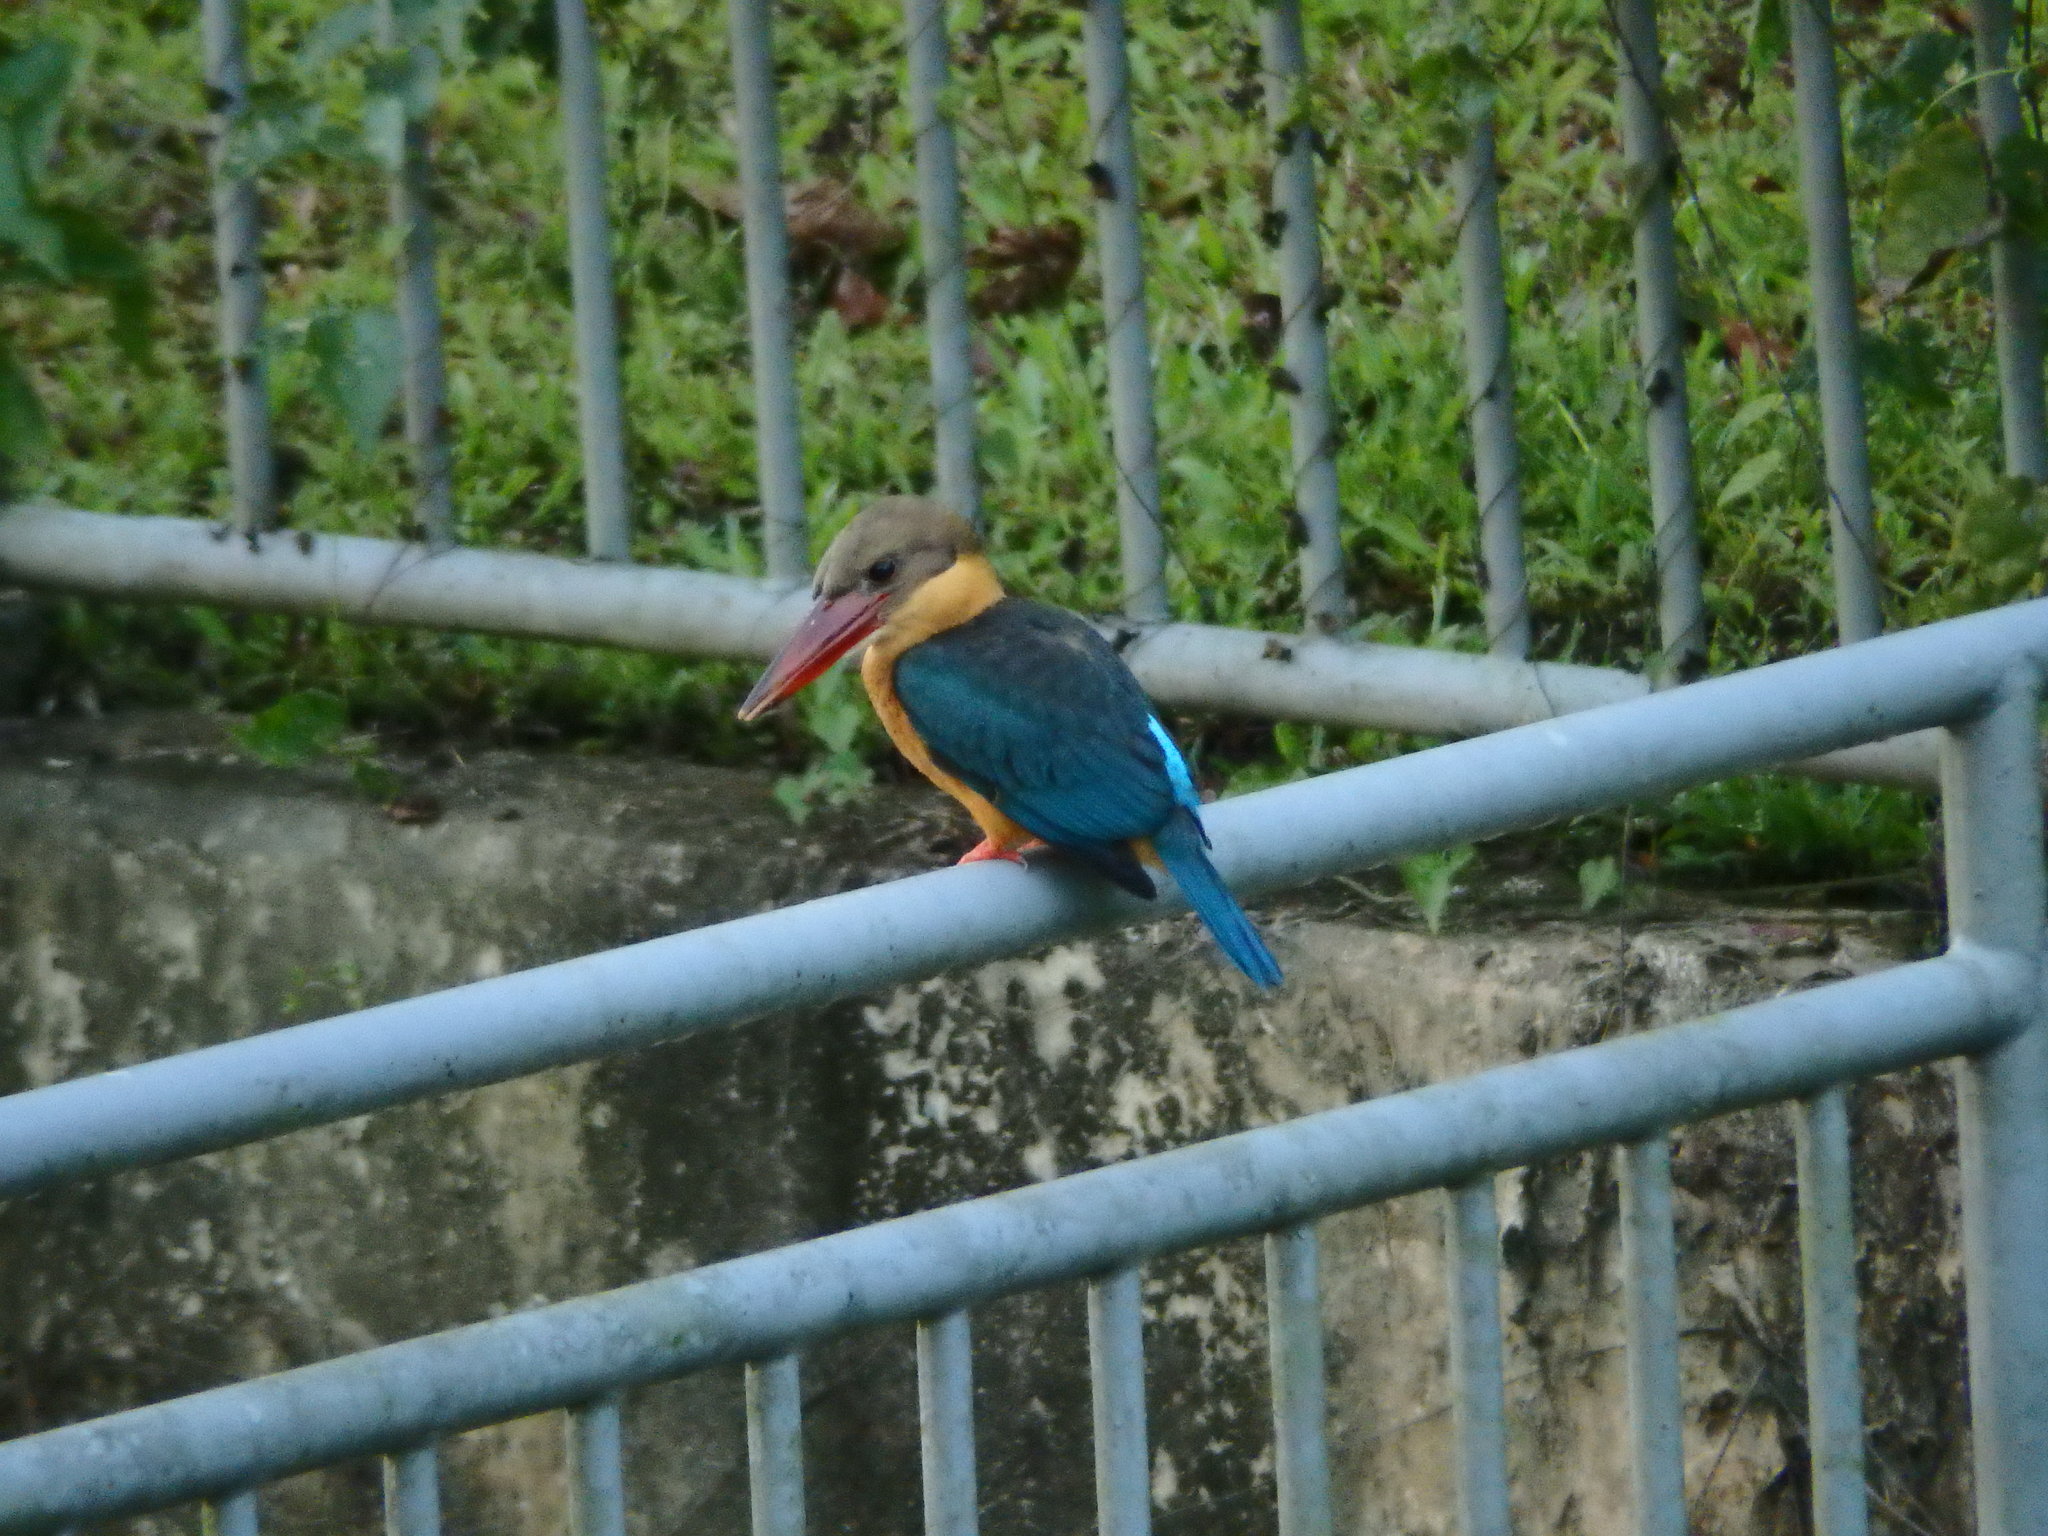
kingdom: Animalia
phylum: Chordata
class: Aves
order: Coraciiformes
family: Alcedinidae
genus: Pelargopsis
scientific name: Pelargopsis capensis
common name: Stork-billed kingfisher
